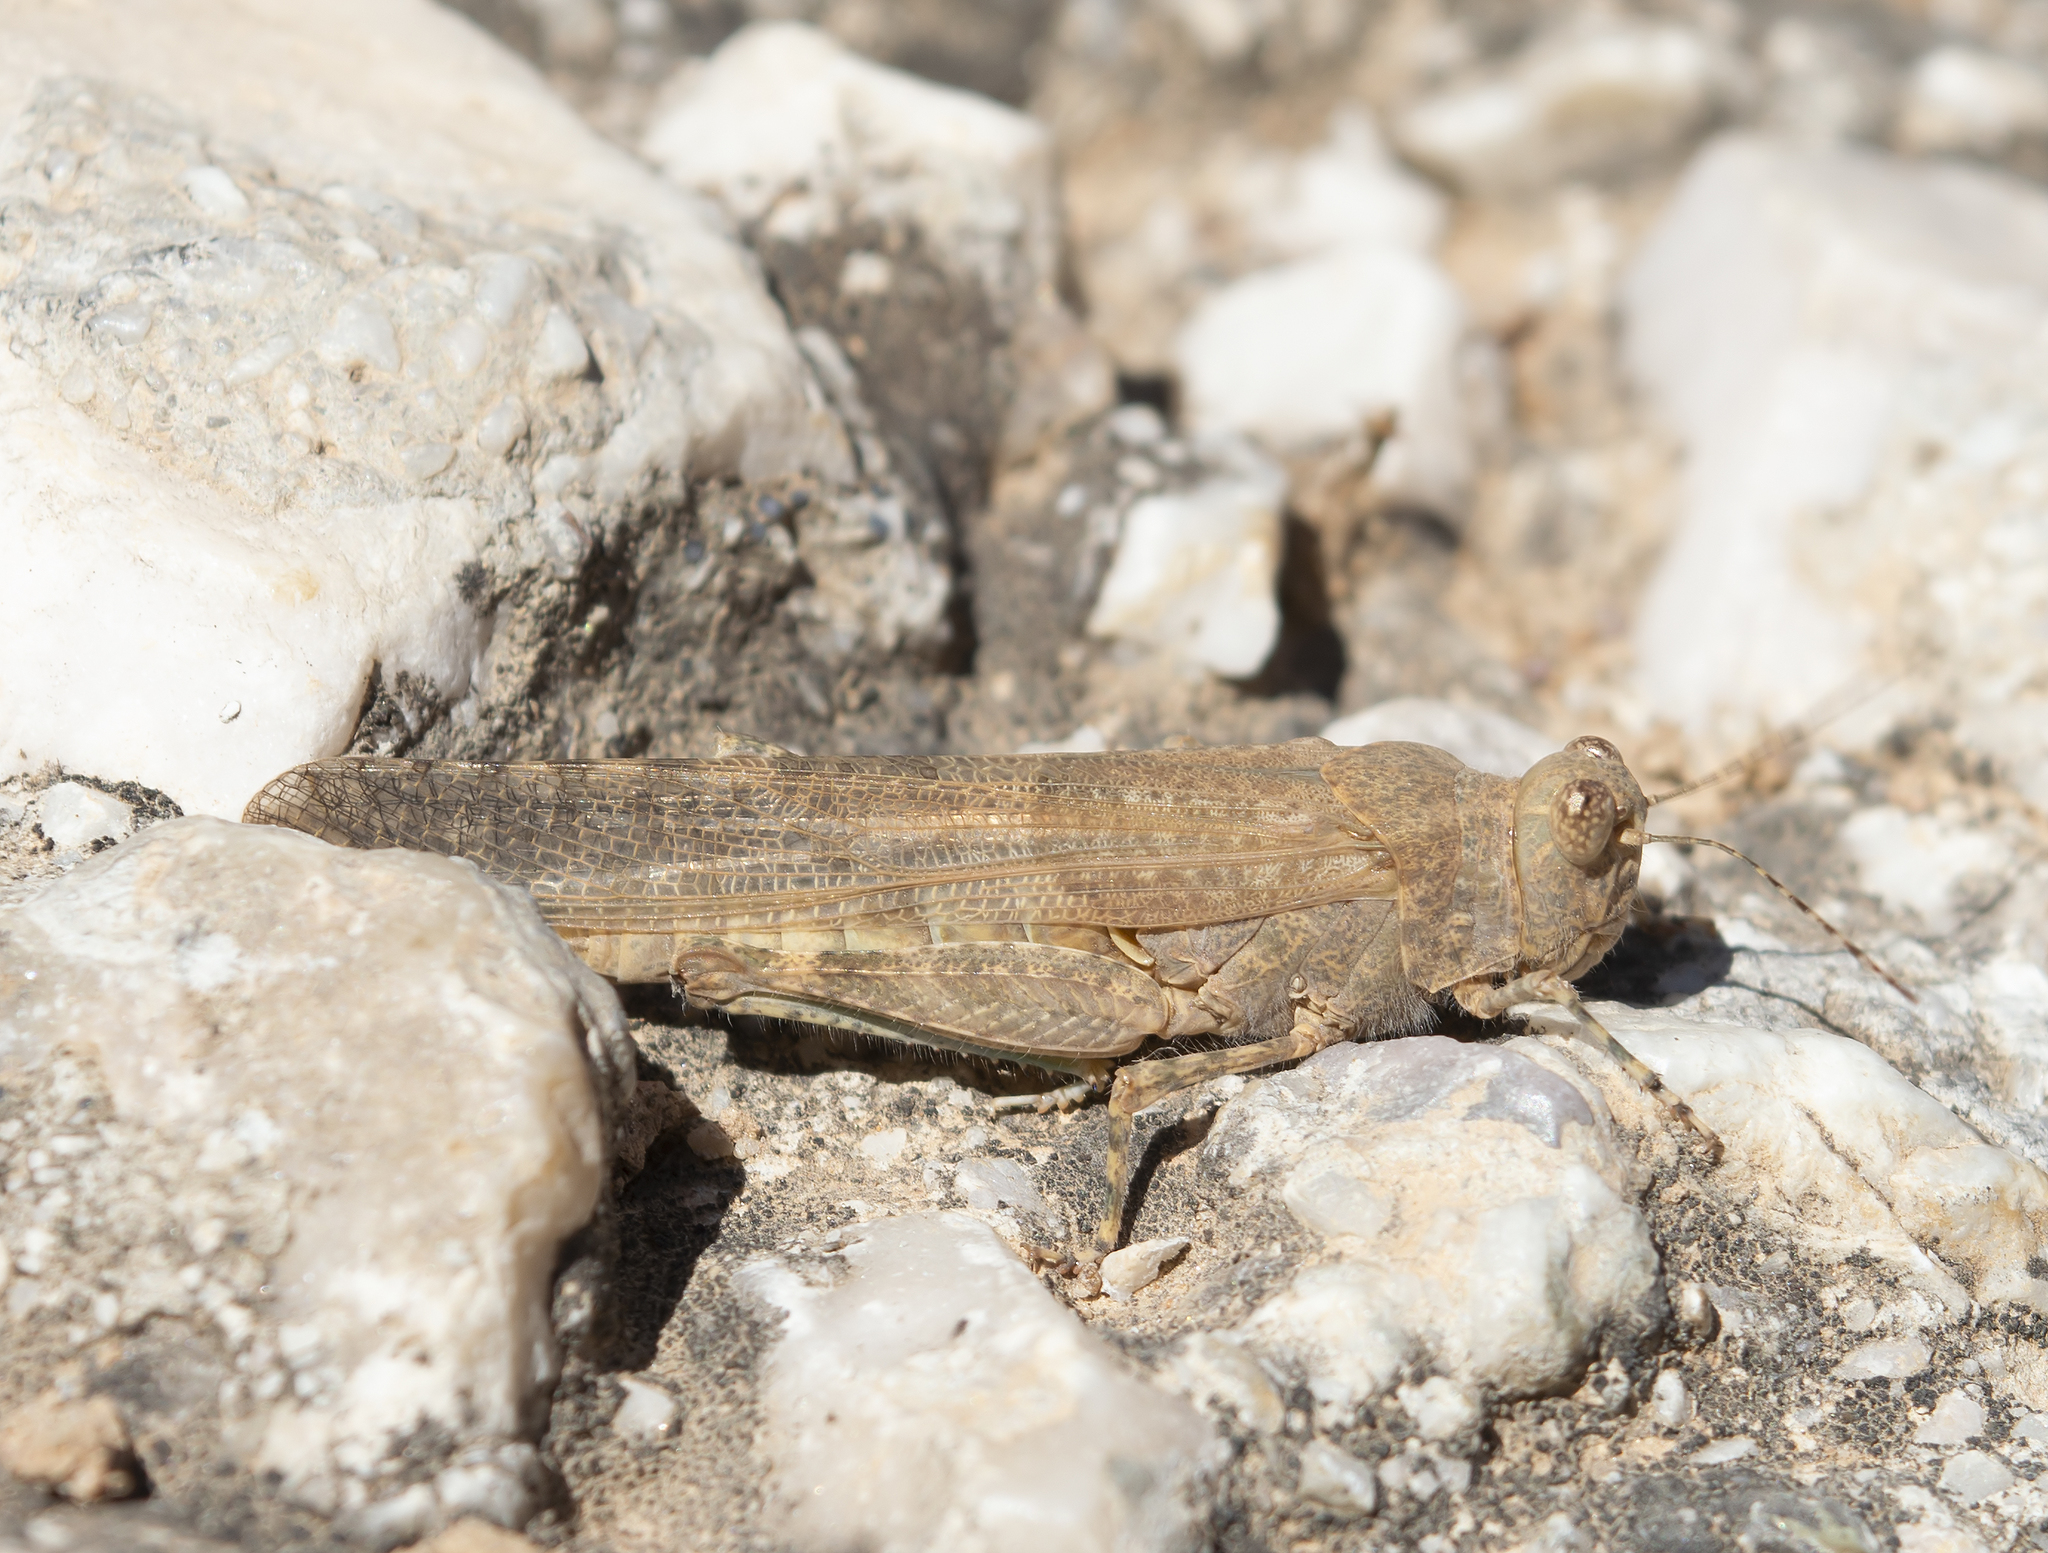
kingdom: Animalia
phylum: Arthropoda
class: Insecta
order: Orthoptera
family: Acrididae
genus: Sphingonotus
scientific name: Sphingonotus rubescens
